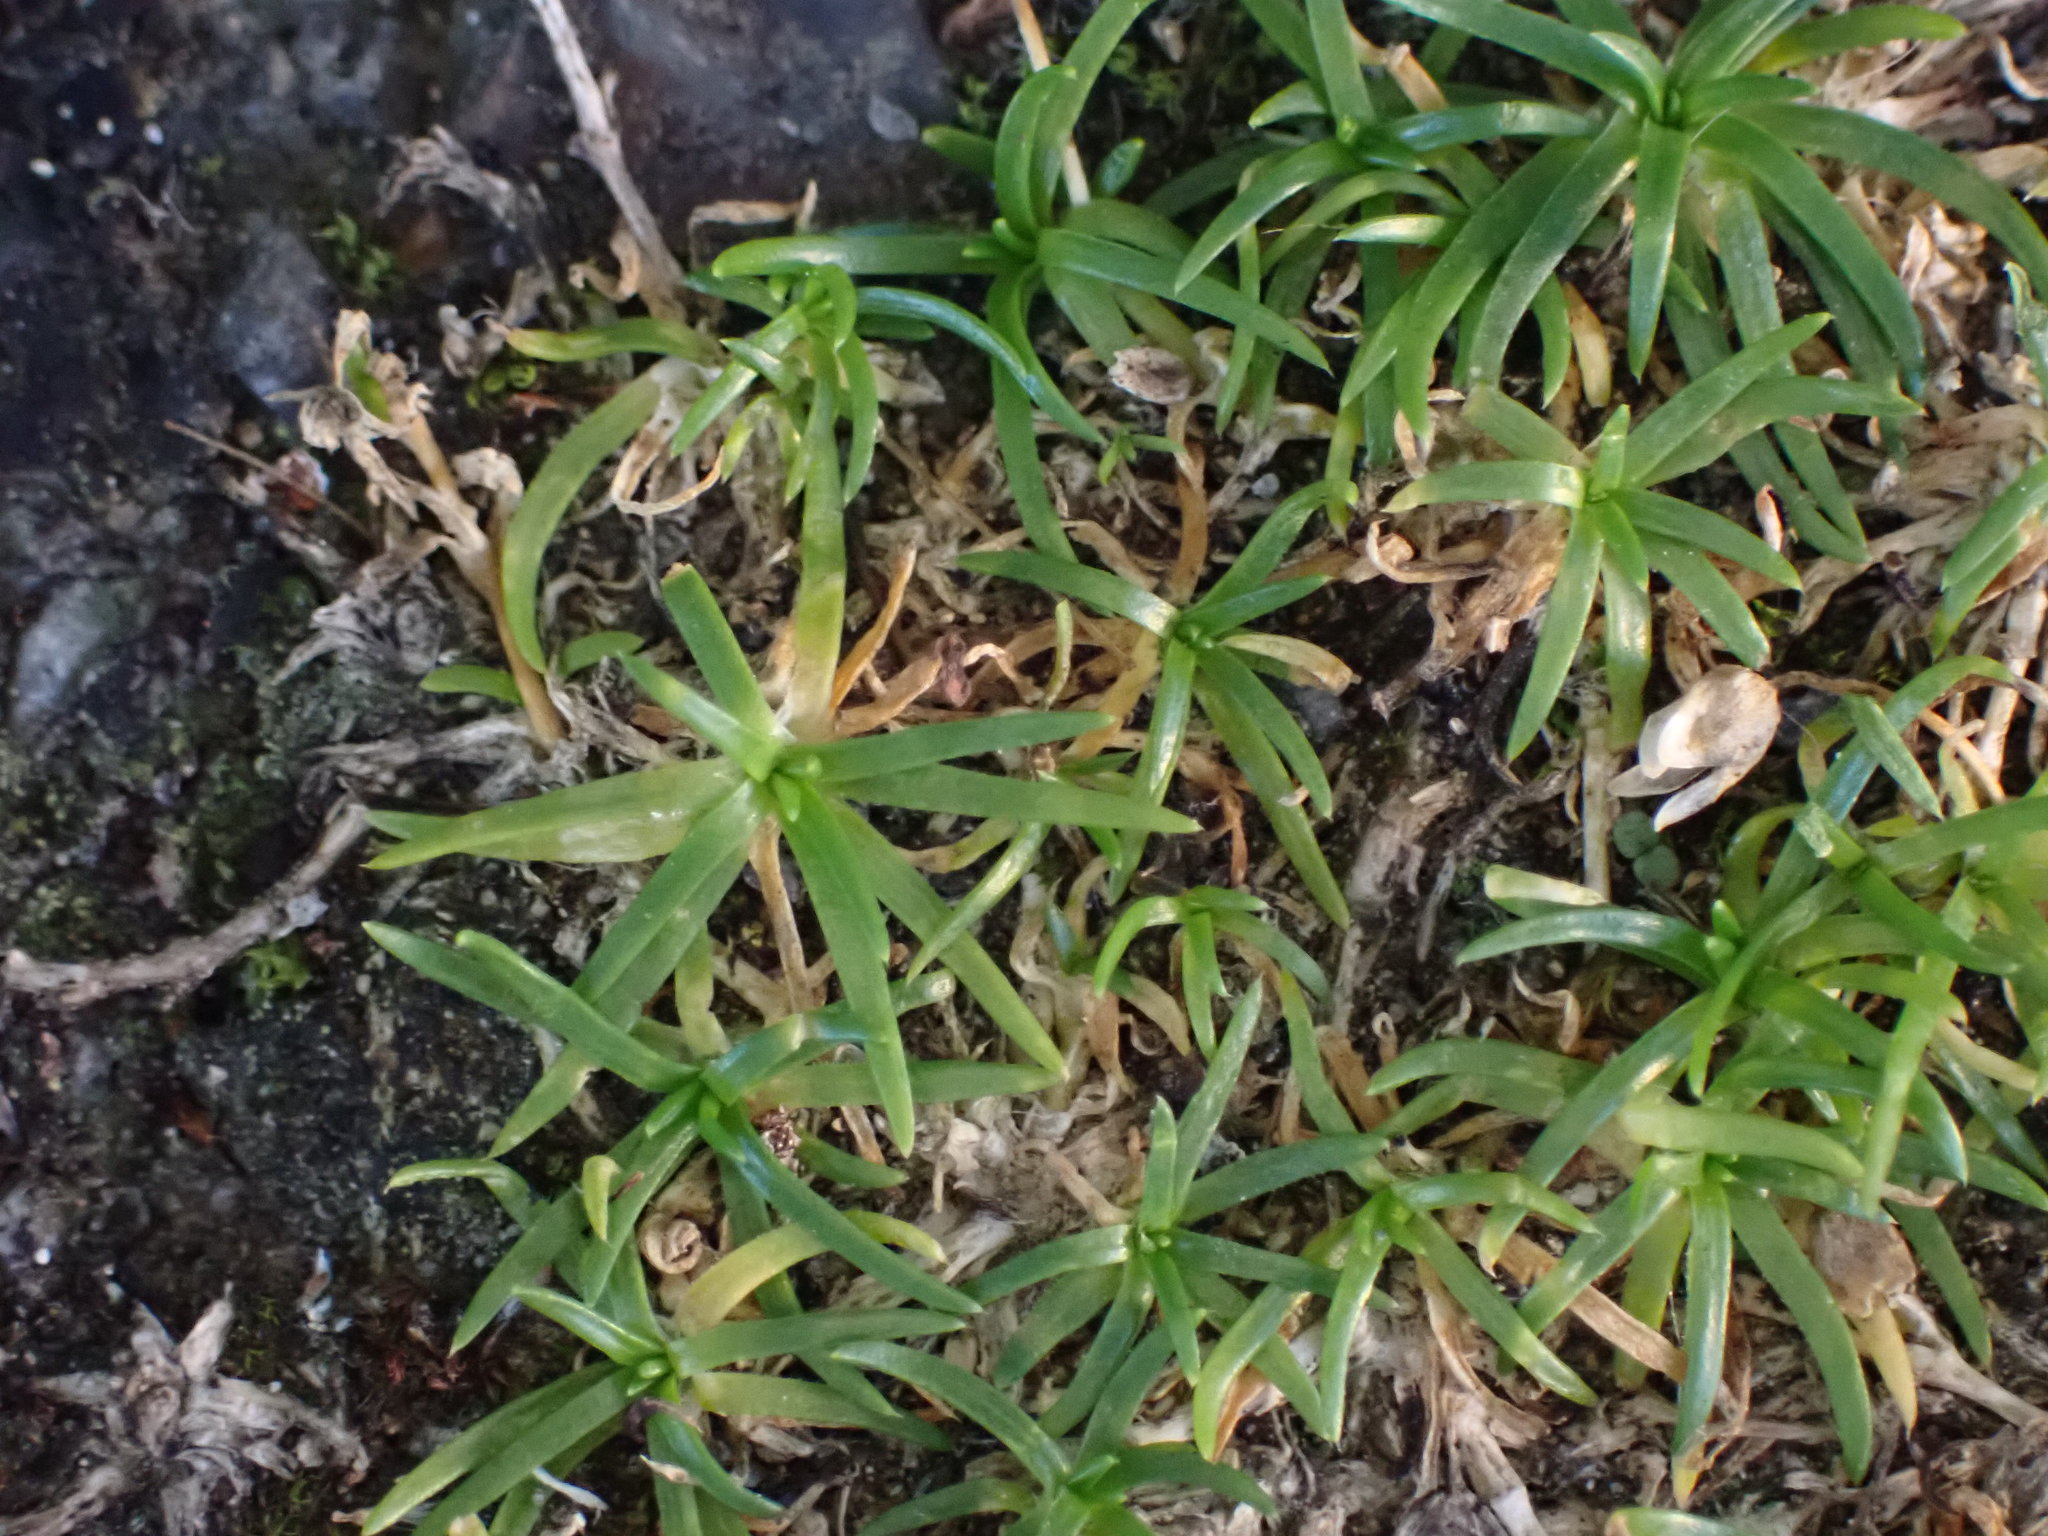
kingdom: Plantae
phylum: Tracheophyta
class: Magnoliopsida
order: Caryophyllales
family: Caryophyllaceae
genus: Sagina
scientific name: Sagina procumbens
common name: Procumbent pearlwort
